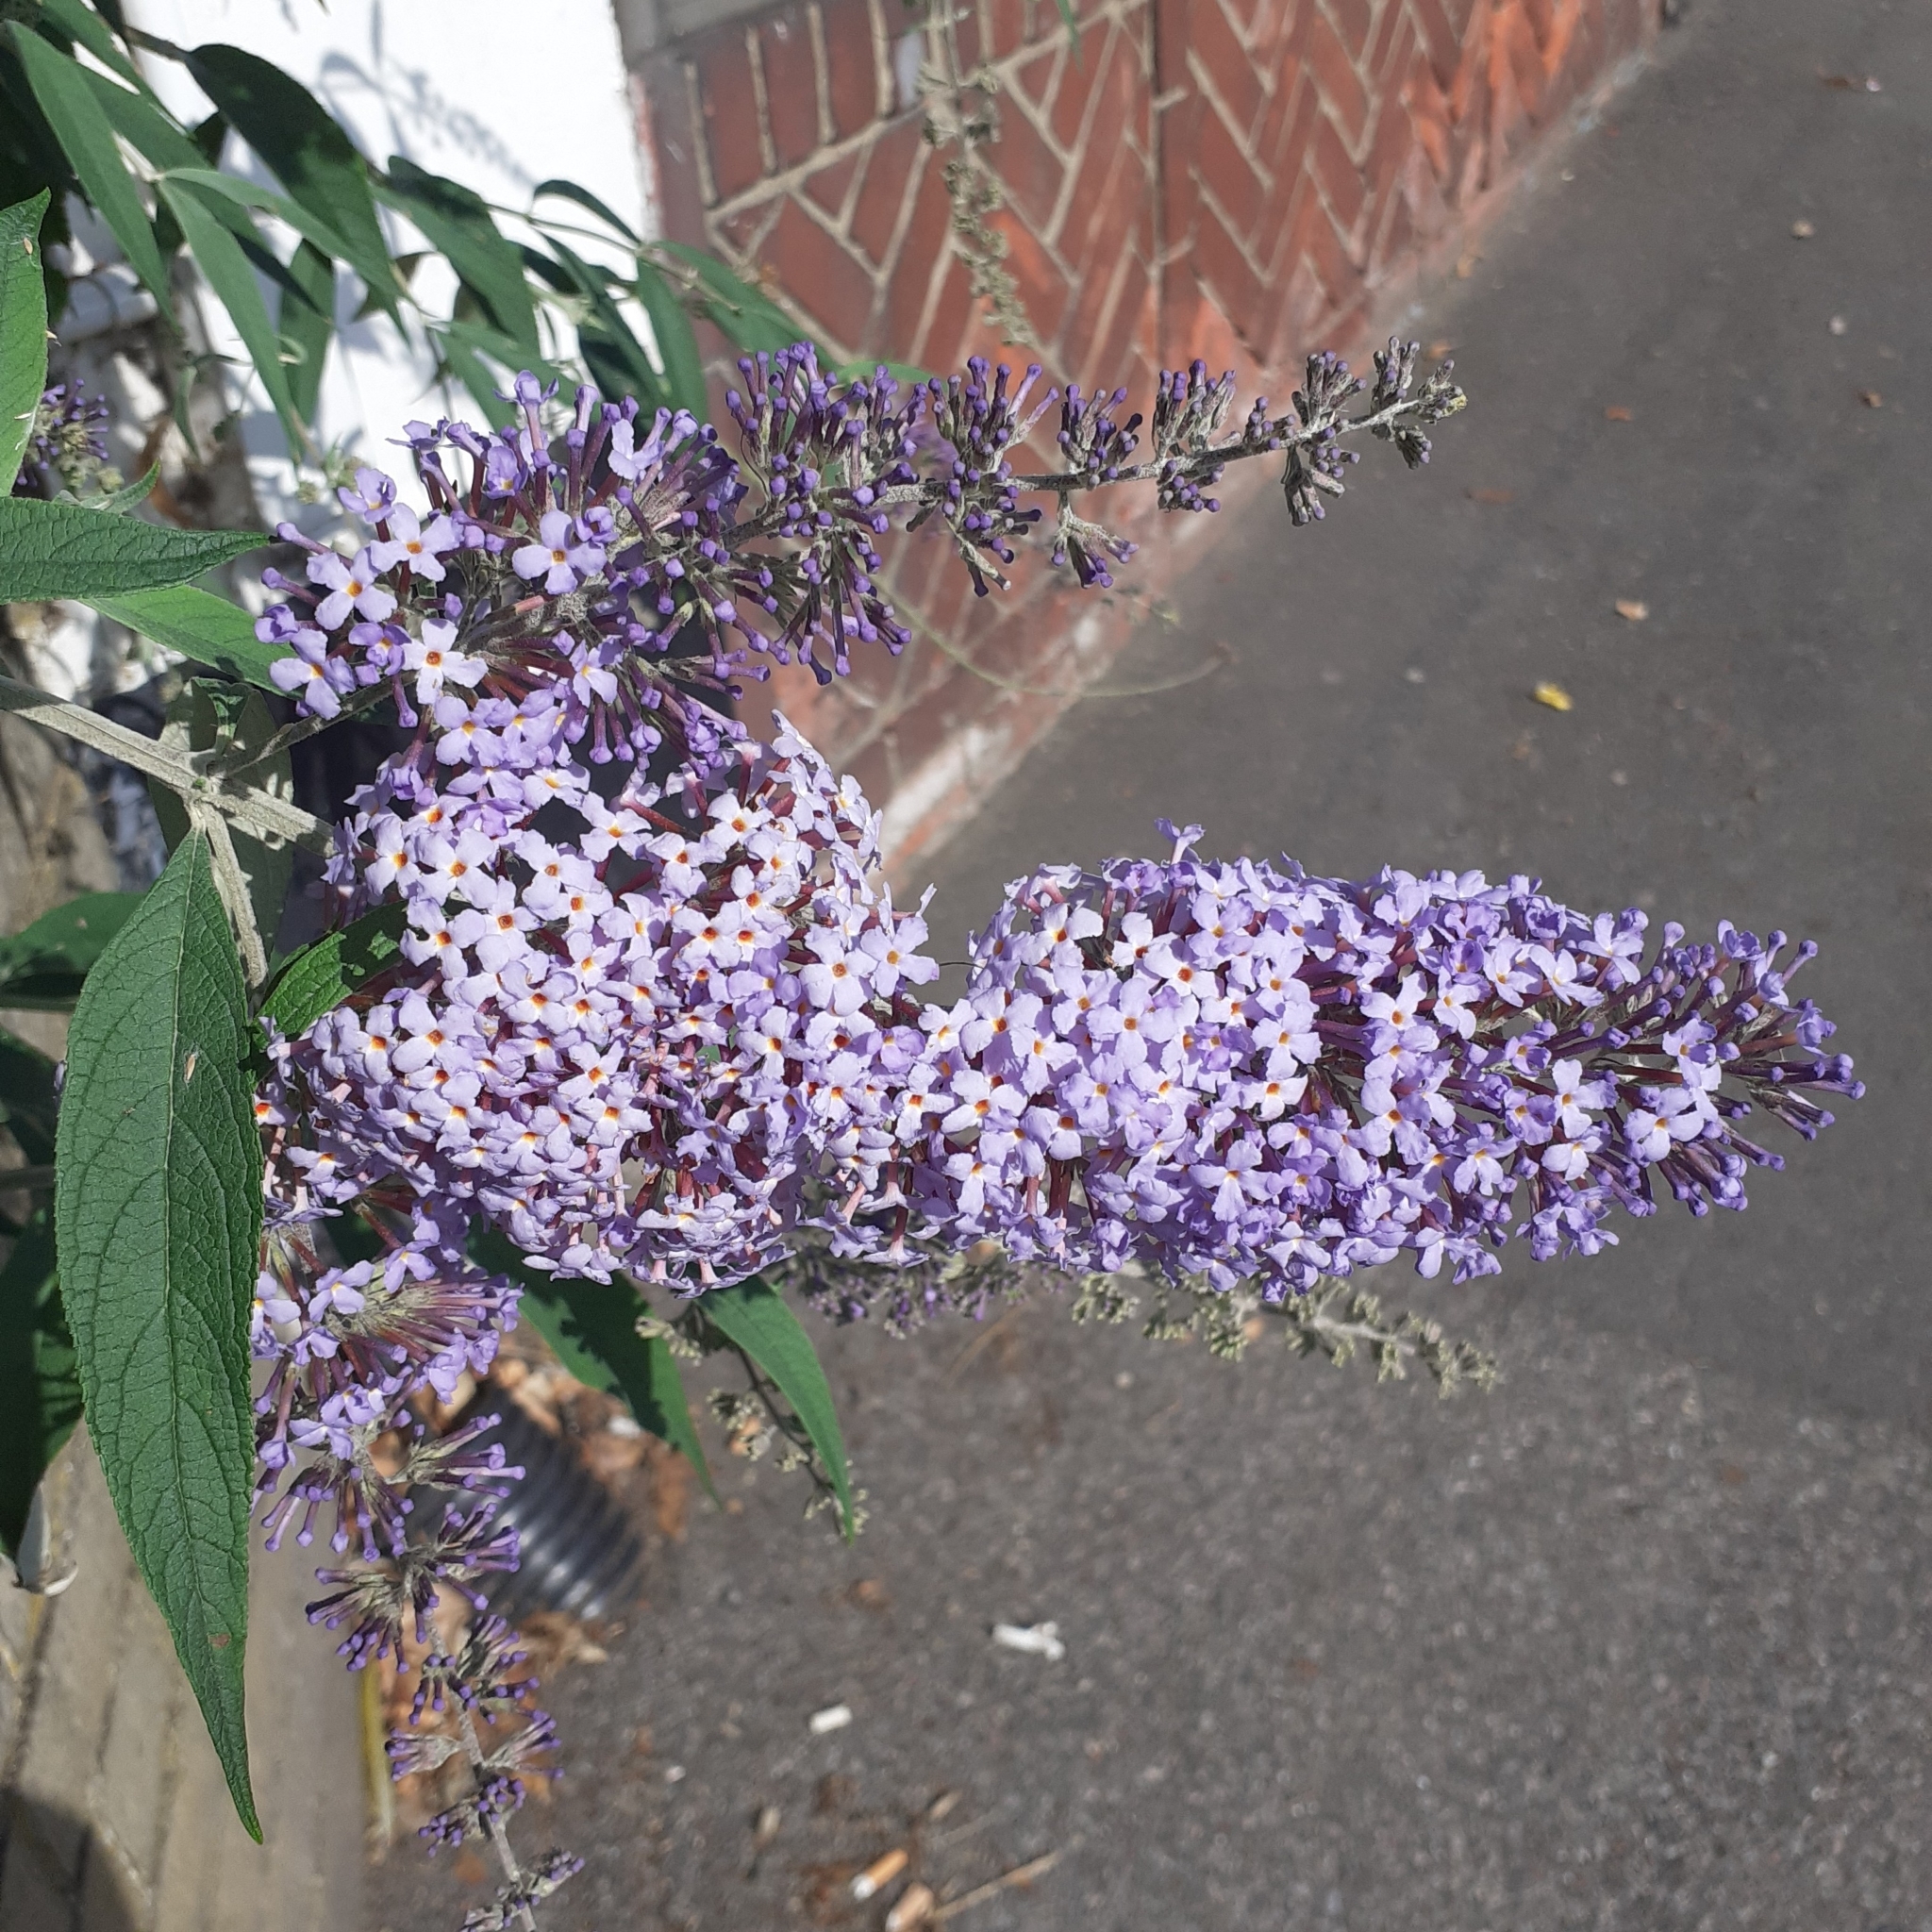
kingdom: Plantae
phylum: Tracheophyta
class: Magnoliopsida
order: Lamiales
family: Scrophulariaceae
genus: Buddleja
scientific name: Buddleja davidii
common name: Butterfly-bush
